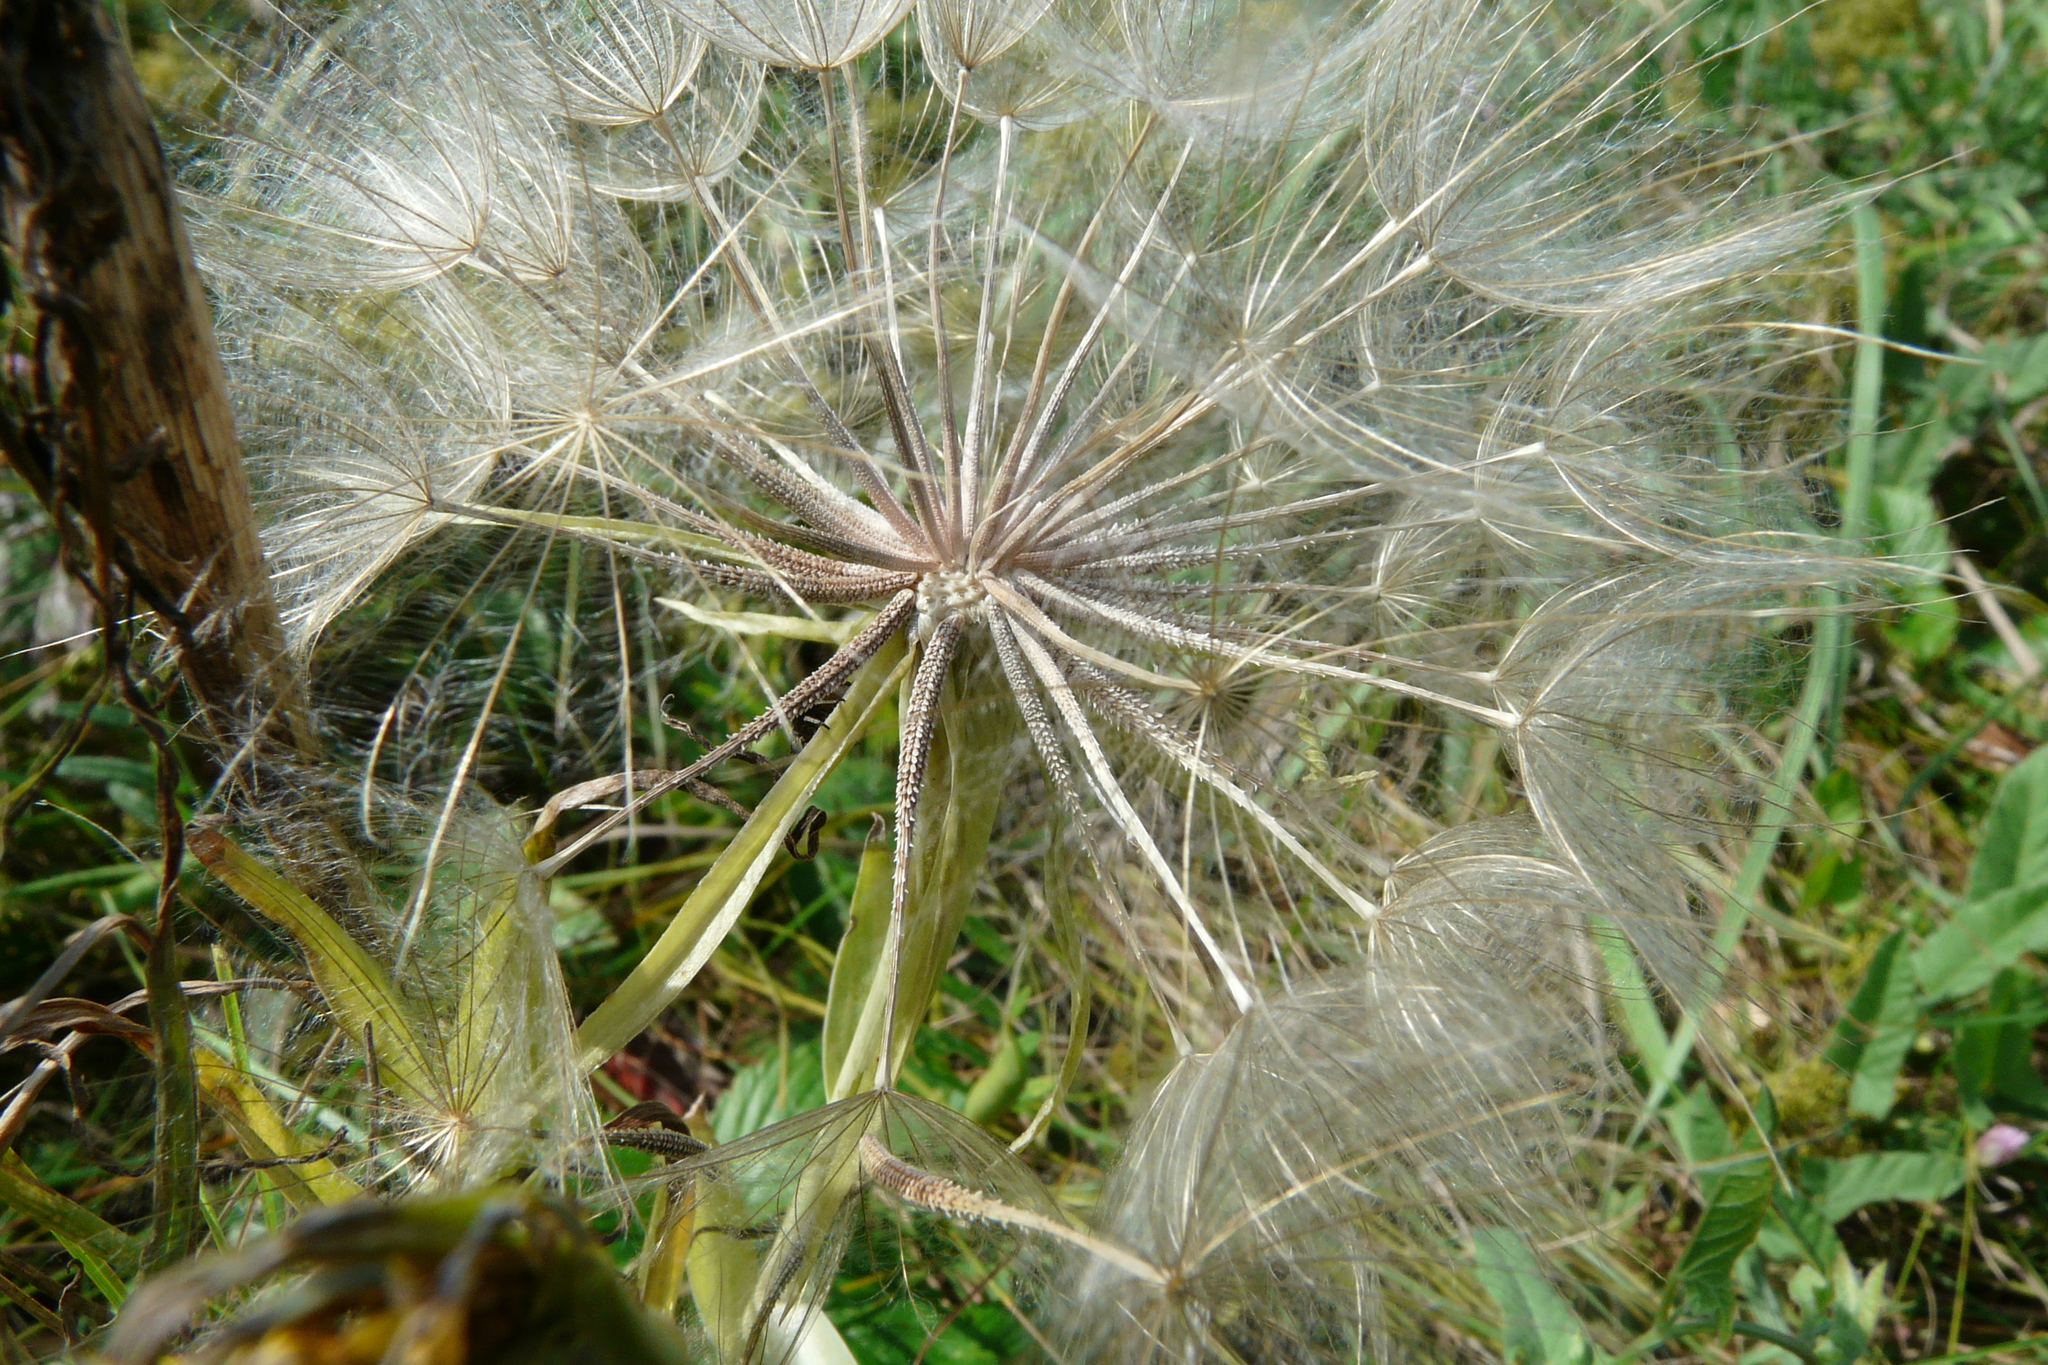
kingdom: Plantae
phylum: Tracheophyta
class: Magnoliopsida
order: Asterales
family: Asteraceae
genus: Tragopogon
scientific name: Tragopogon dubius
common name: Yellow salsify
